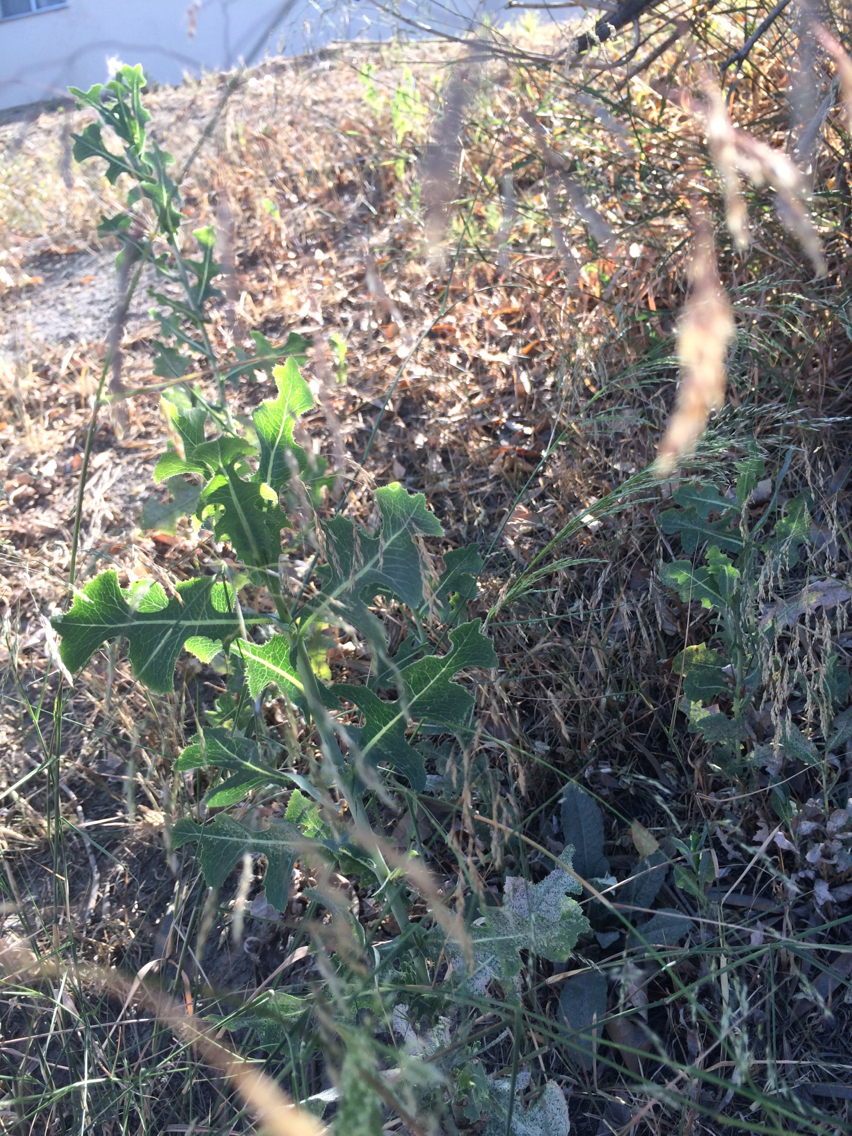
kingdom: Plantae
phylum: Tracheophyta
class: Magnoliopsida
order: Asterales
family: Asteraceae
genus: Lactuca
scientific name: Lactuca serriola
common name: Prickly lettuce
